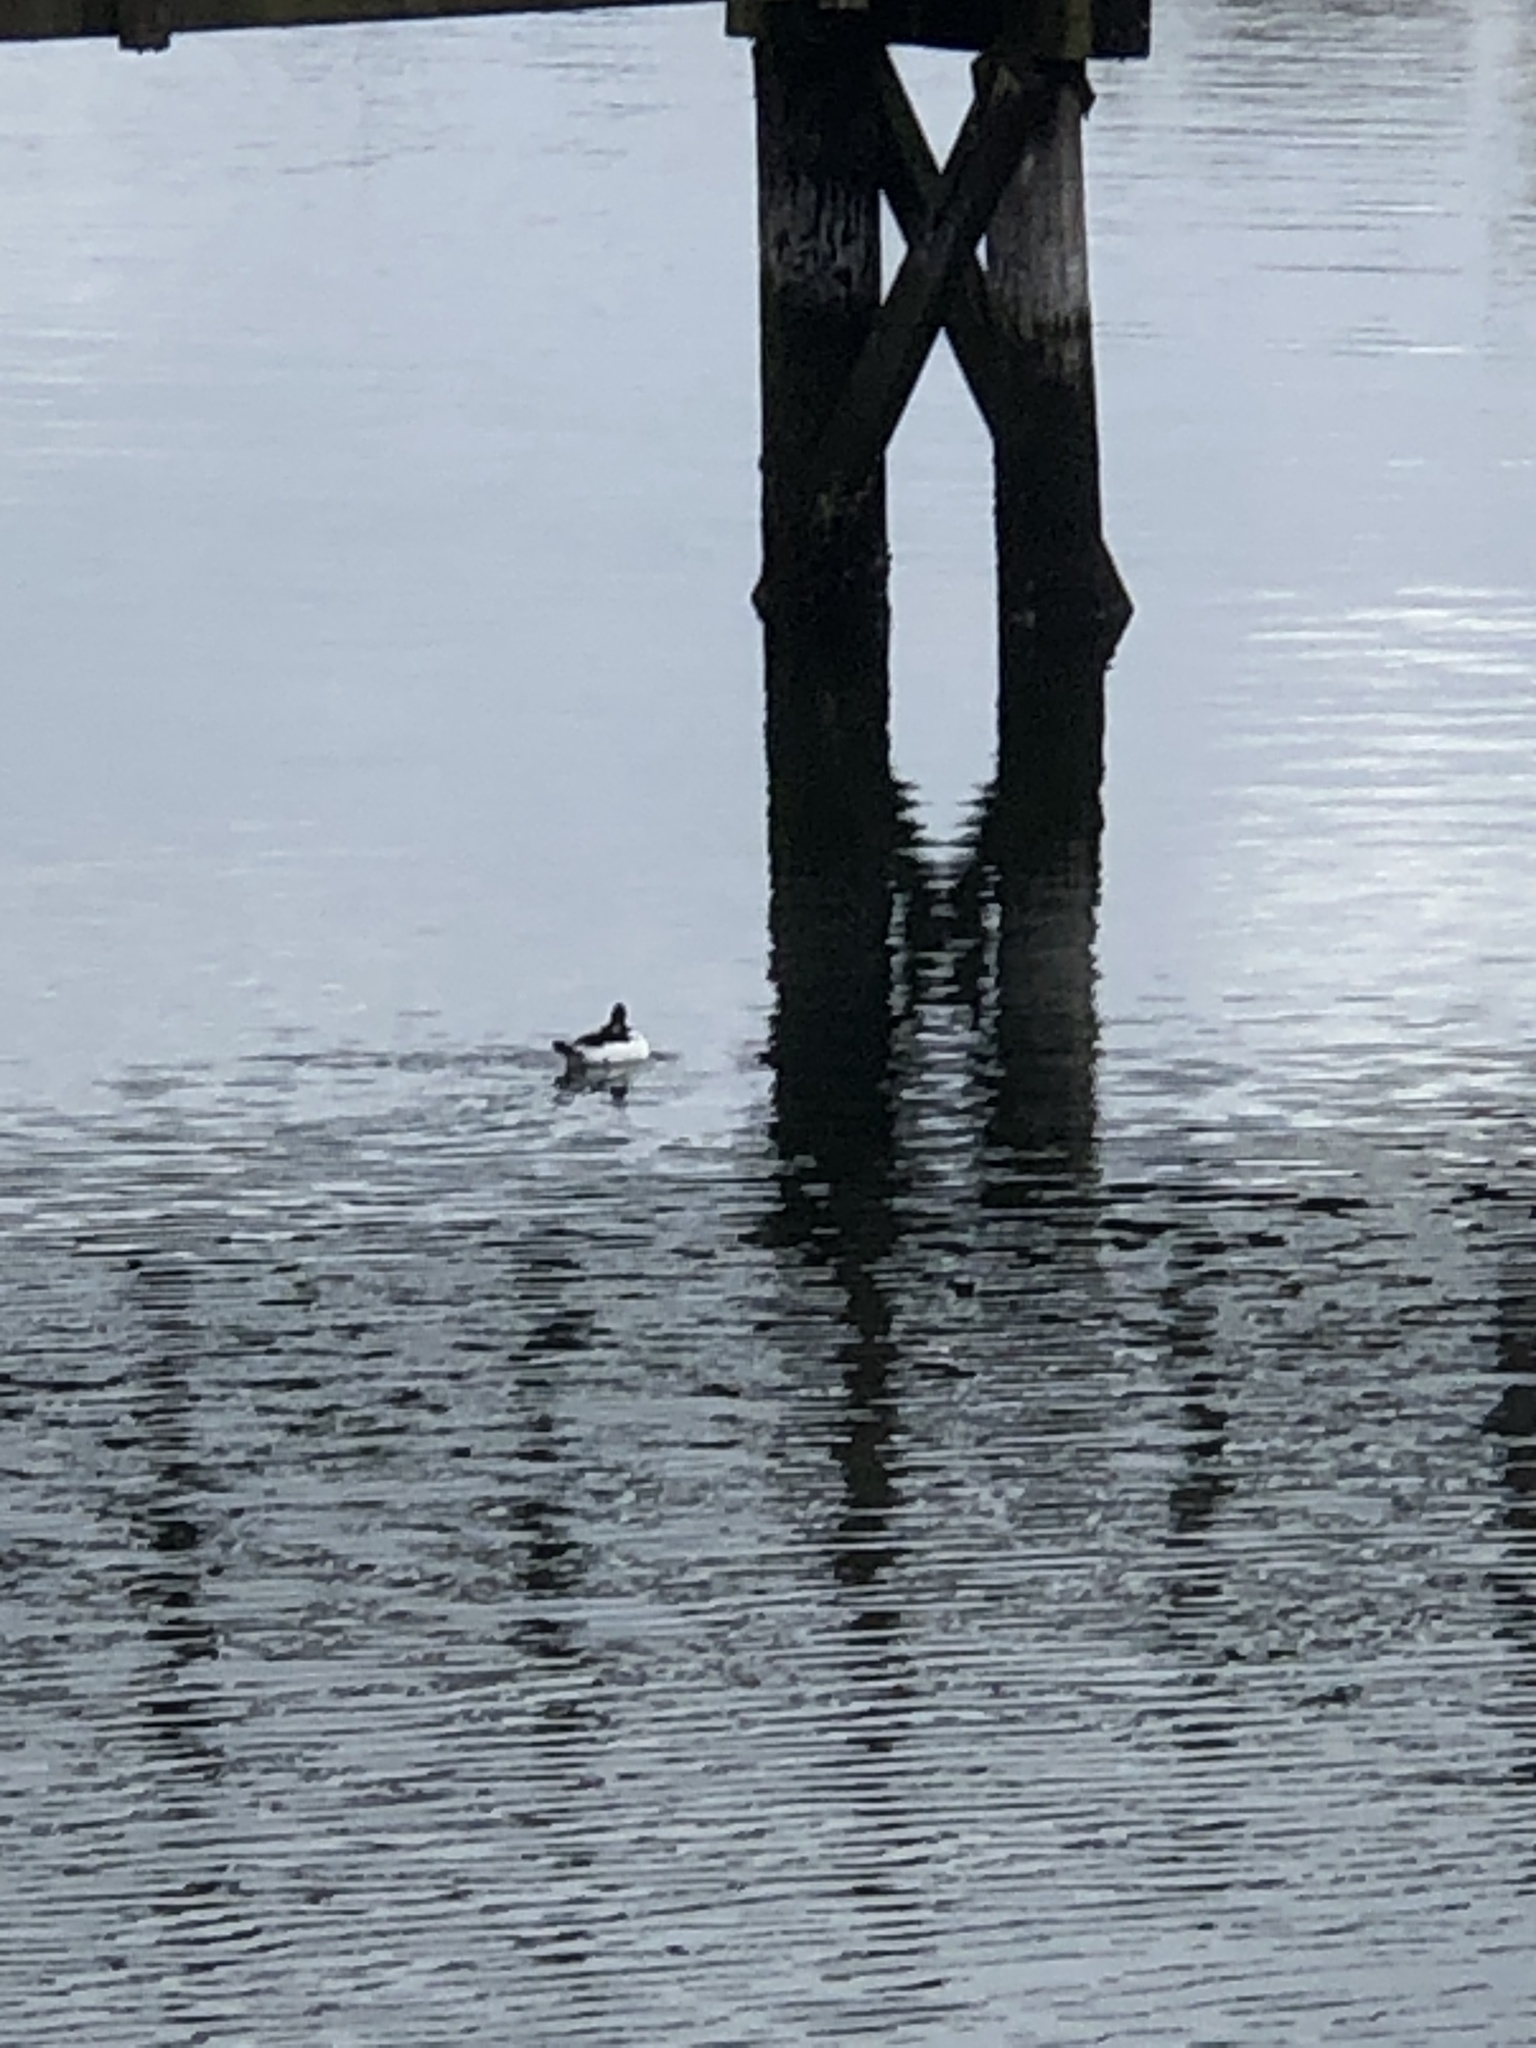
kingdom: Animalia
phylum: Chordata
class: Aves
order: Anseriformes
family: Anatidae
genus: Bucephala
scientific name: Bucephala albeola
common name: Bufflehead
